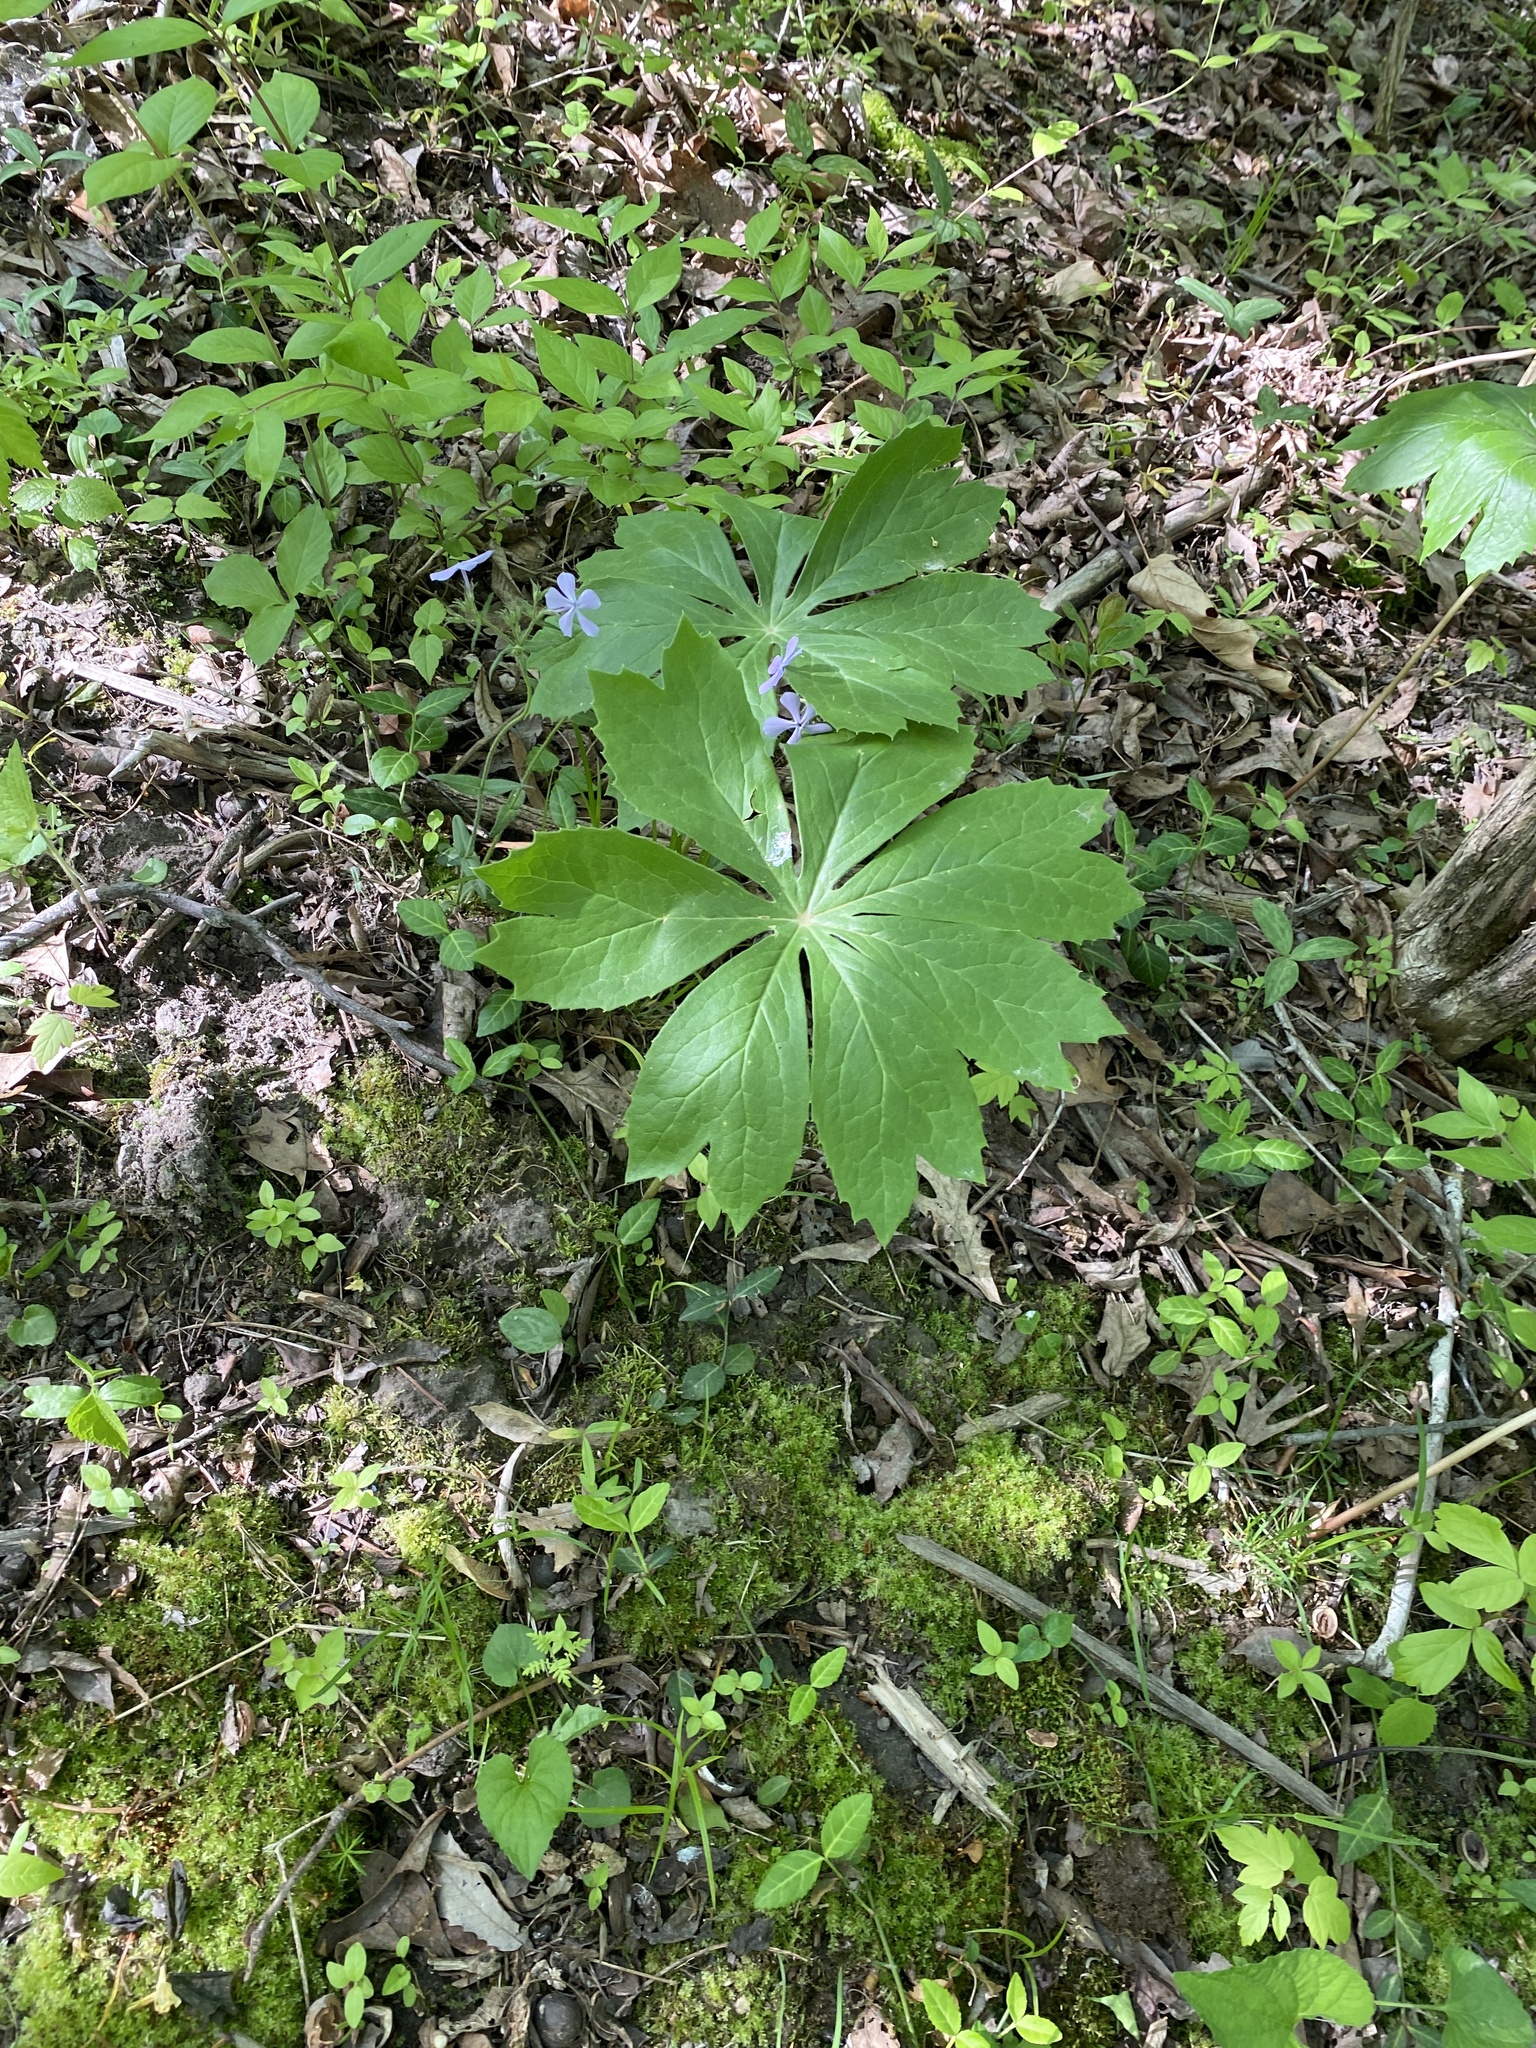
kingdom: Plantae
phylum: Tracheophyta
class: Magnoliopsida
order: Ranunculales
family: Berberidaceae
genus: Podophyllum
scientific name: Podophyllum peltatum
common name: Wild mandrake
